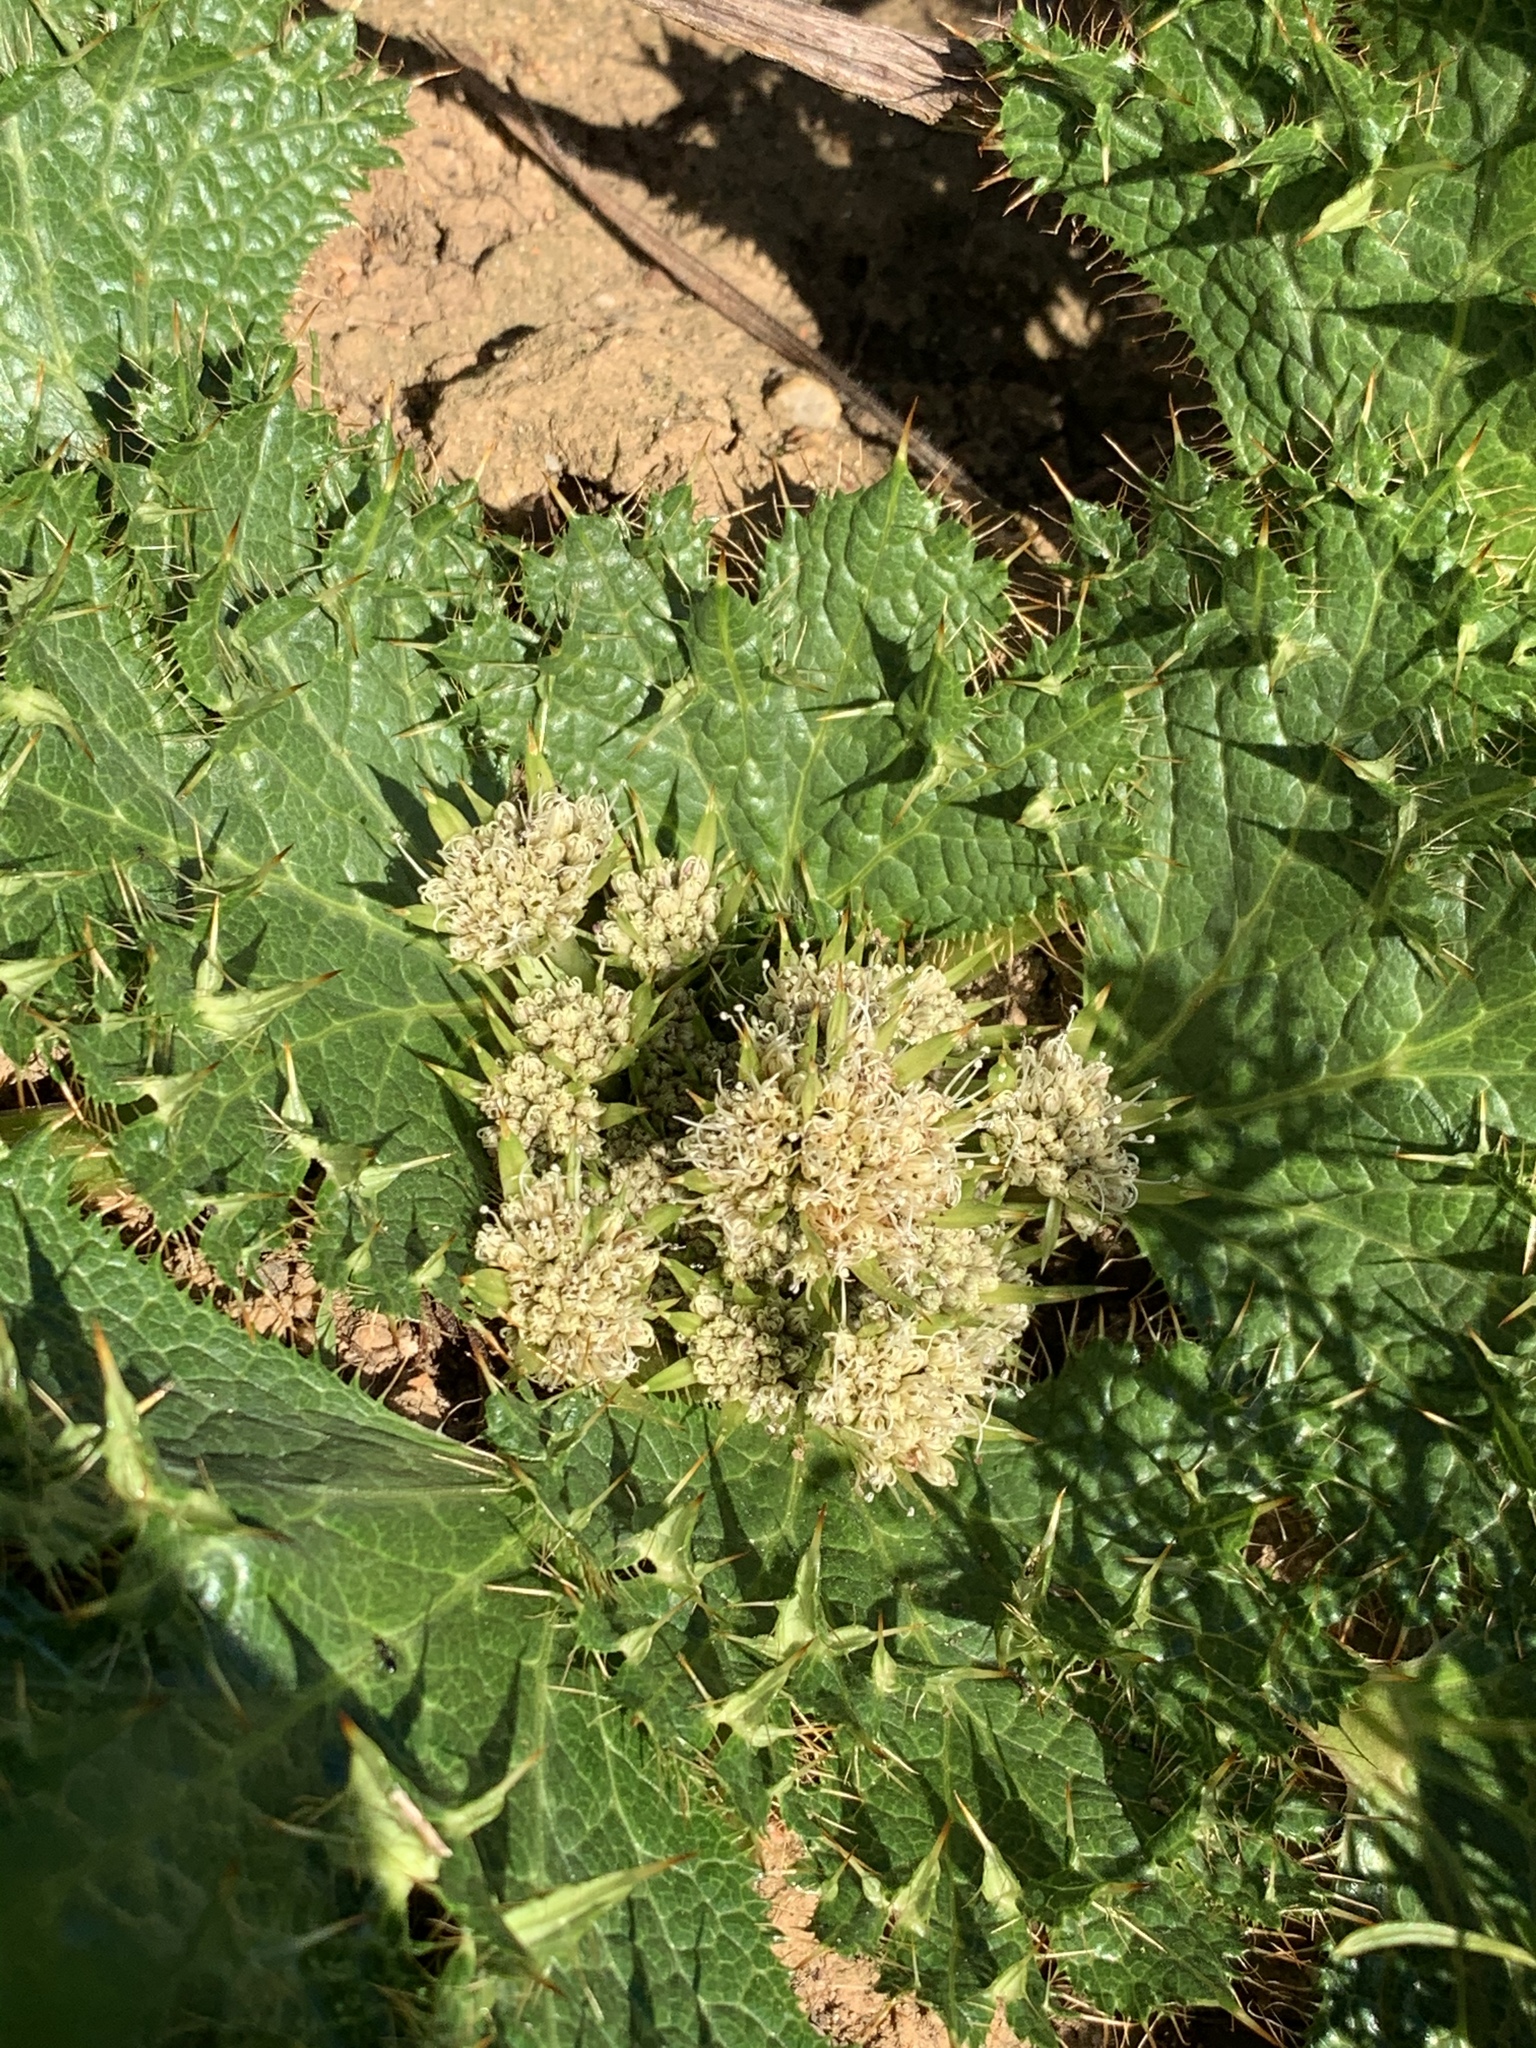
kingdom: Plantae
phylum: Tracheophyta
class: Magnoliopsida
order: Apiales
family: Apiaceae
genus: Arctopus
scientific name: Arctopus monacanthus
